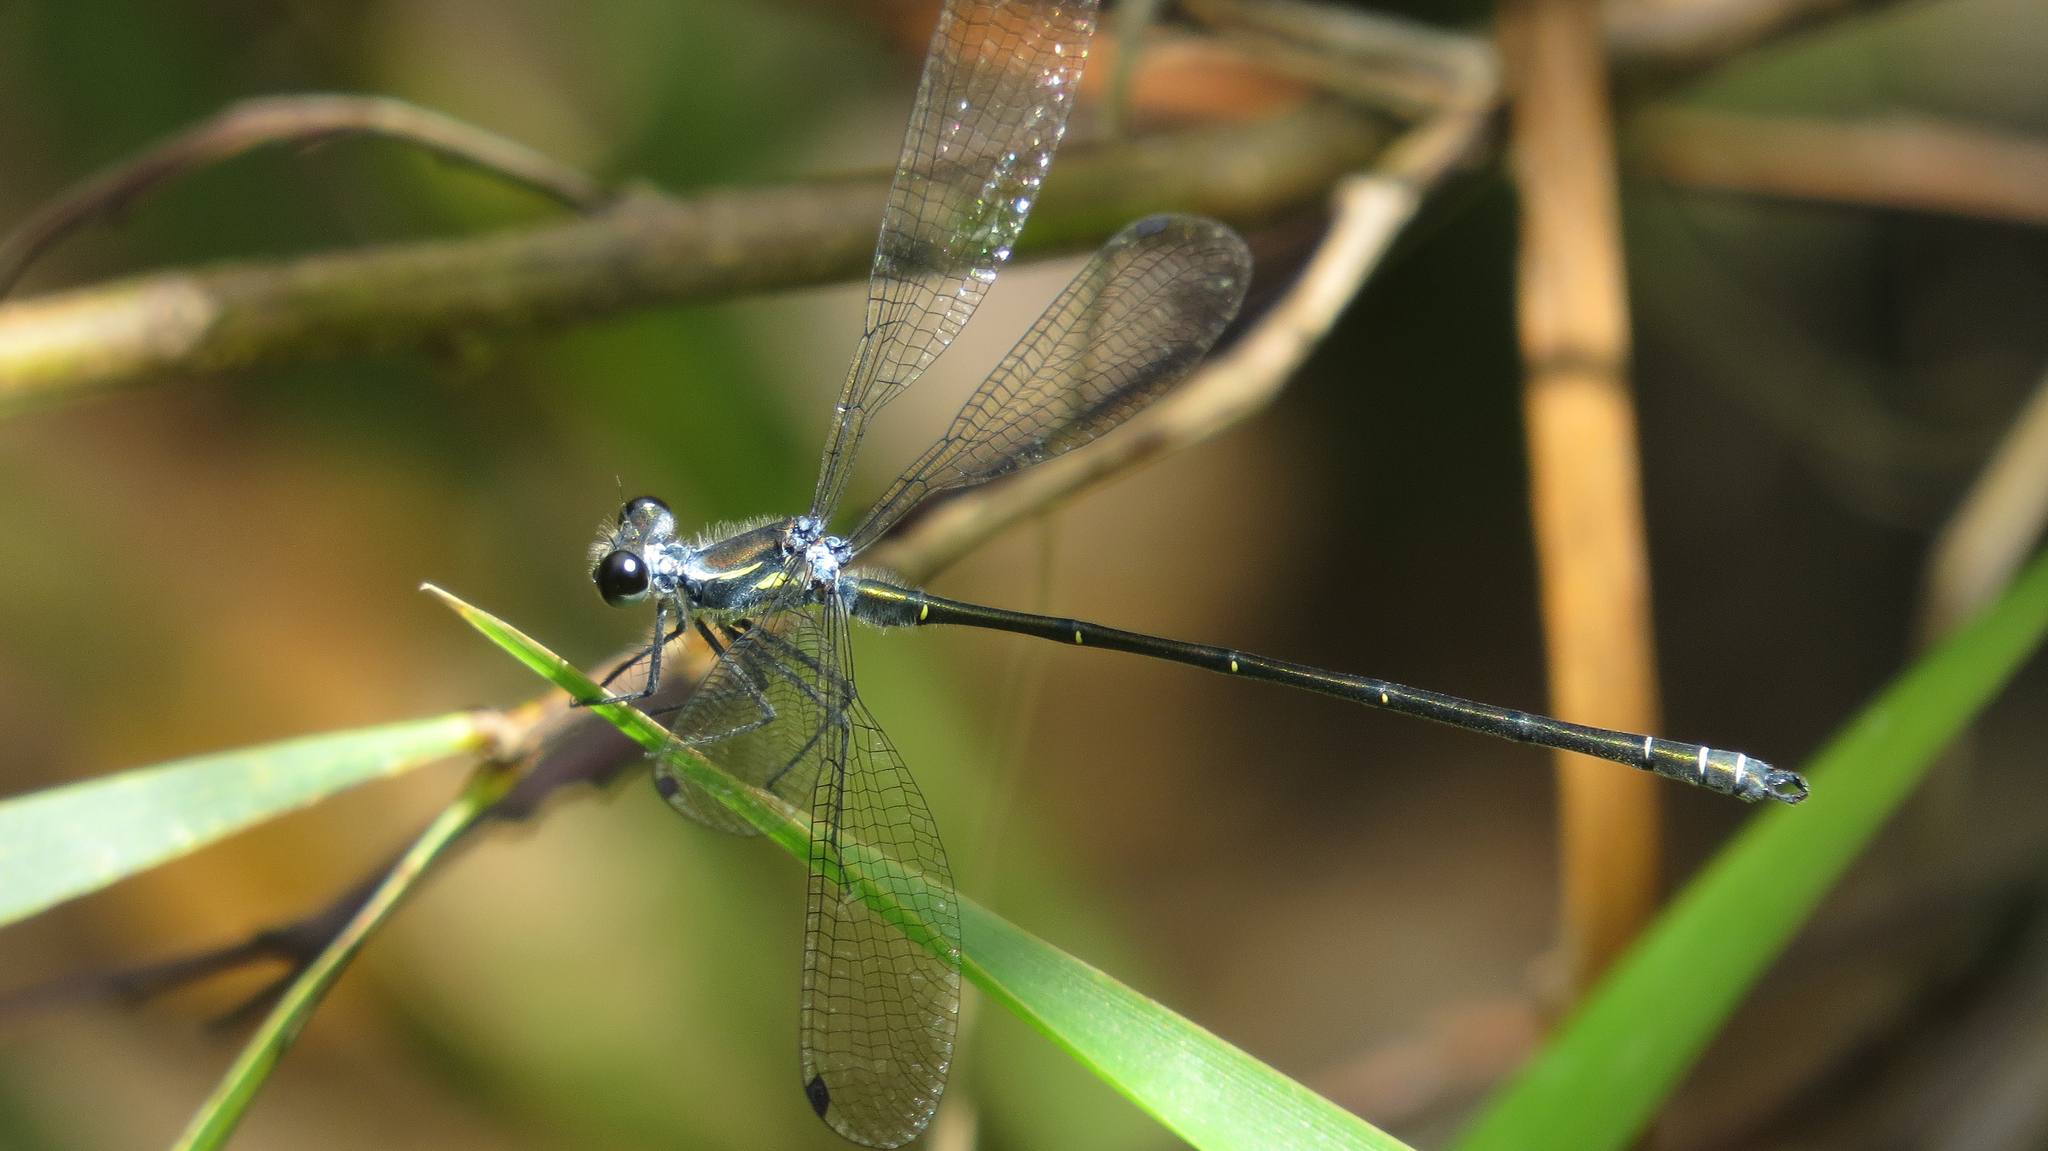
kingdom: Animalia
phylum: Arthropoda
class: Insecta
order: Odonata
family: Argiolestidae
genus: Austroargiolestes
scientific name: Austroargiolestes icteromelas
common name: Common flatwing
